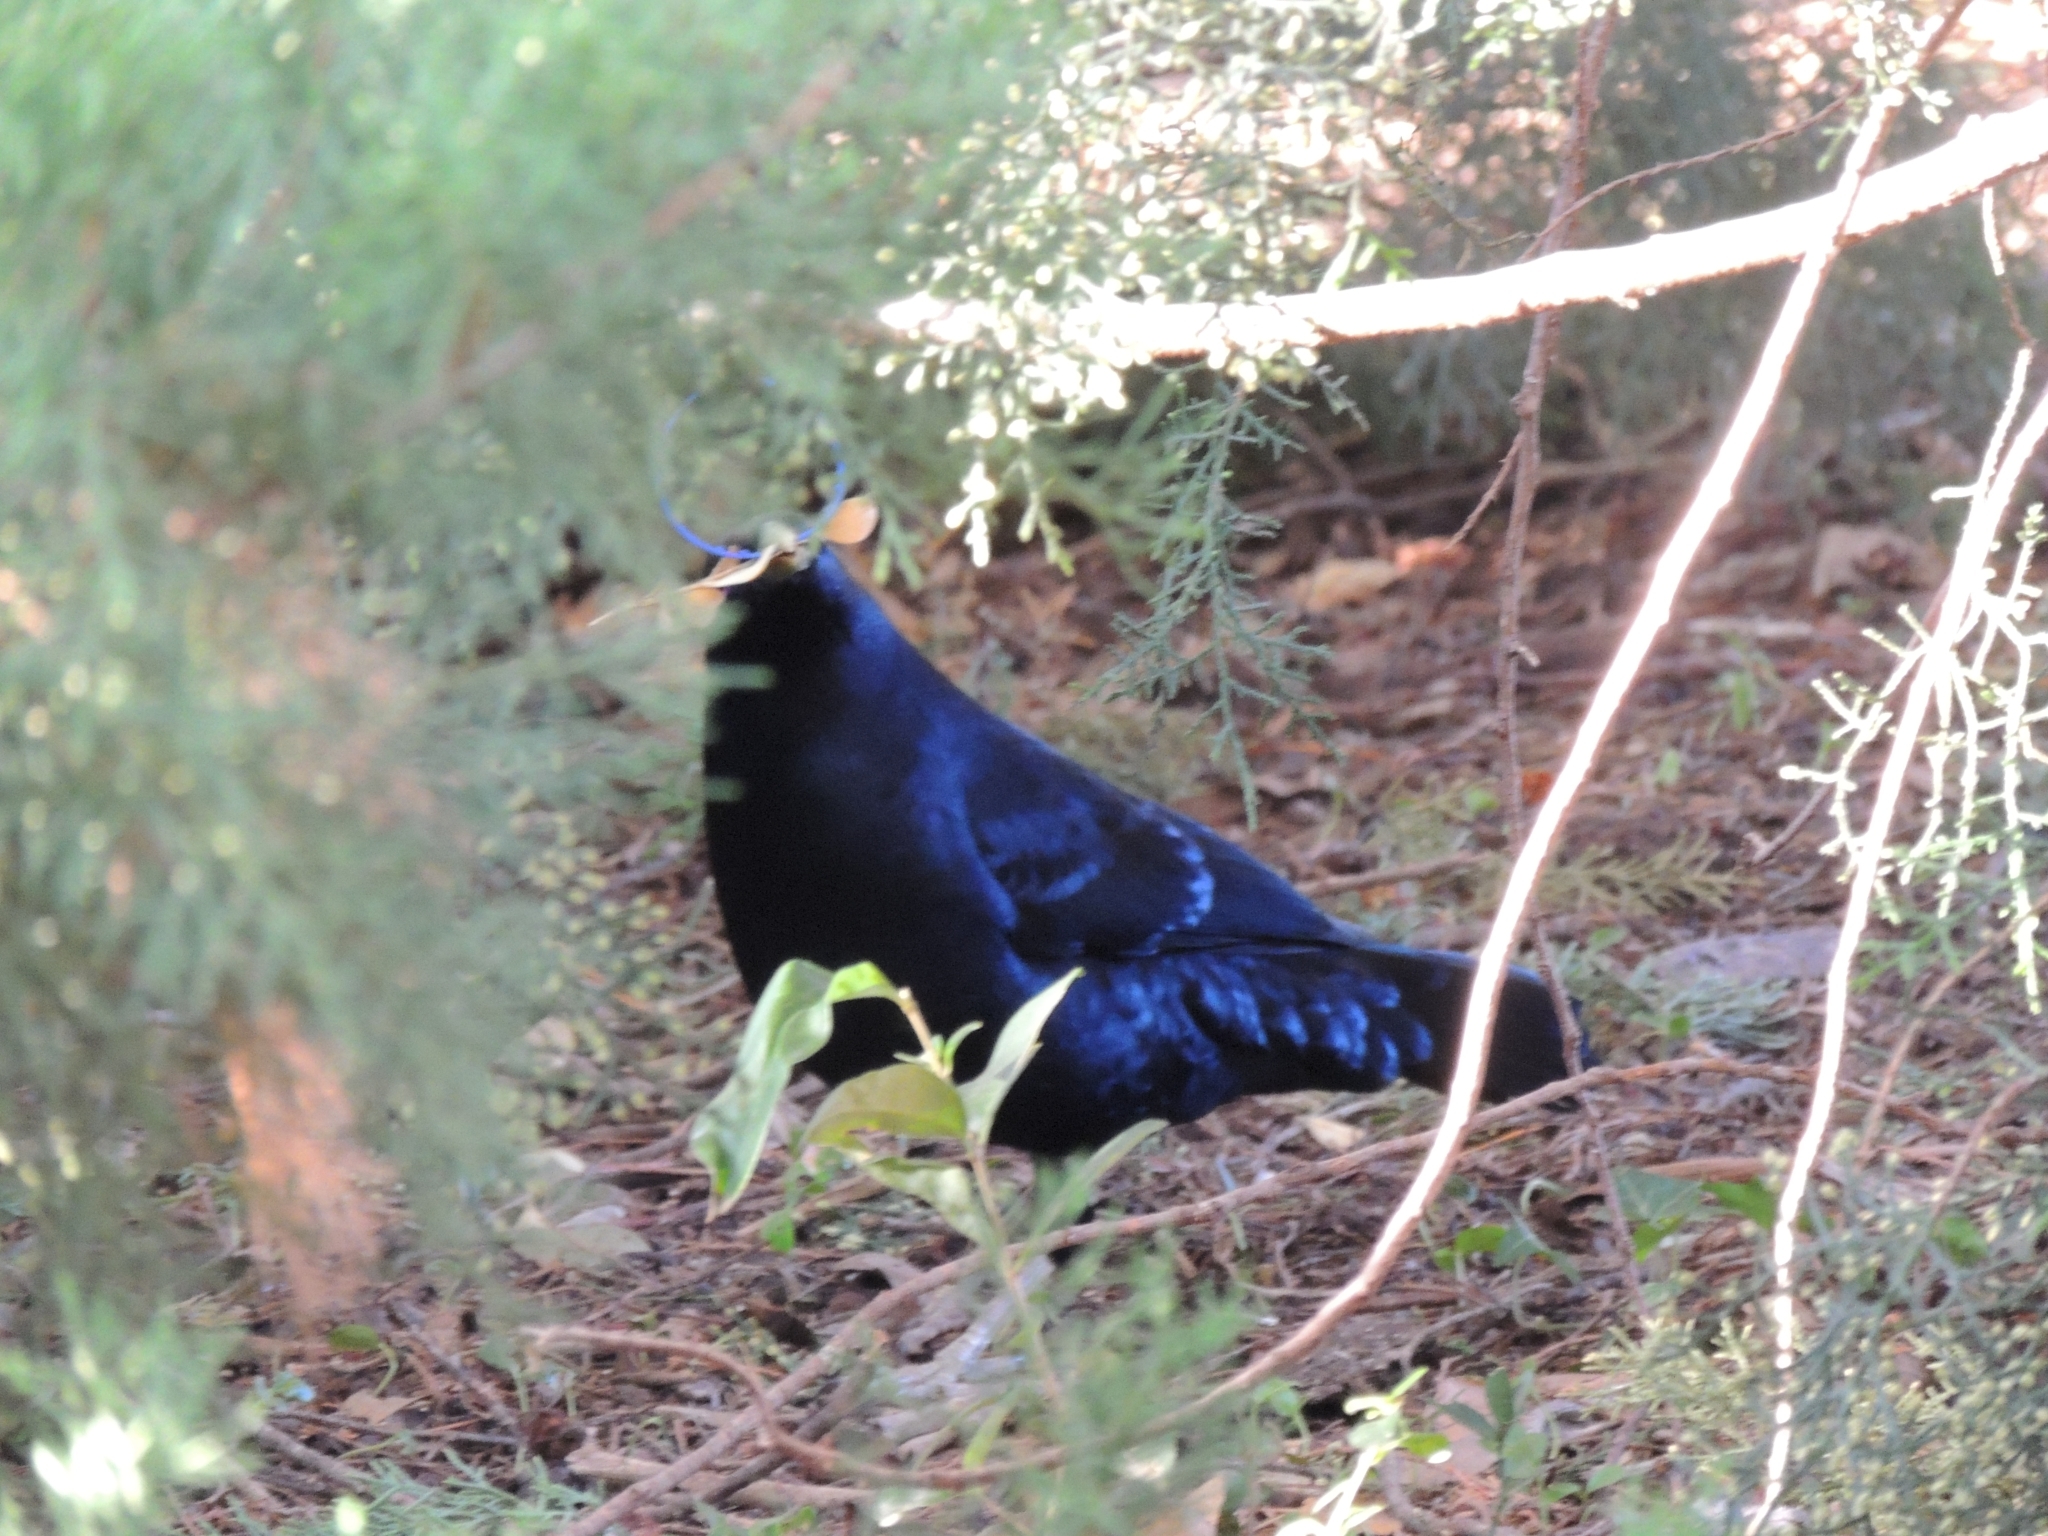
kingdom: Animalia
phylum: Chordata
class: Aves
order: Passeriformes
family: Ptilonorhynchidae
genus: Ptilonorhynchus
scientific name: Ptilonorhynchus violaceus
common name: Satin bowerbird
